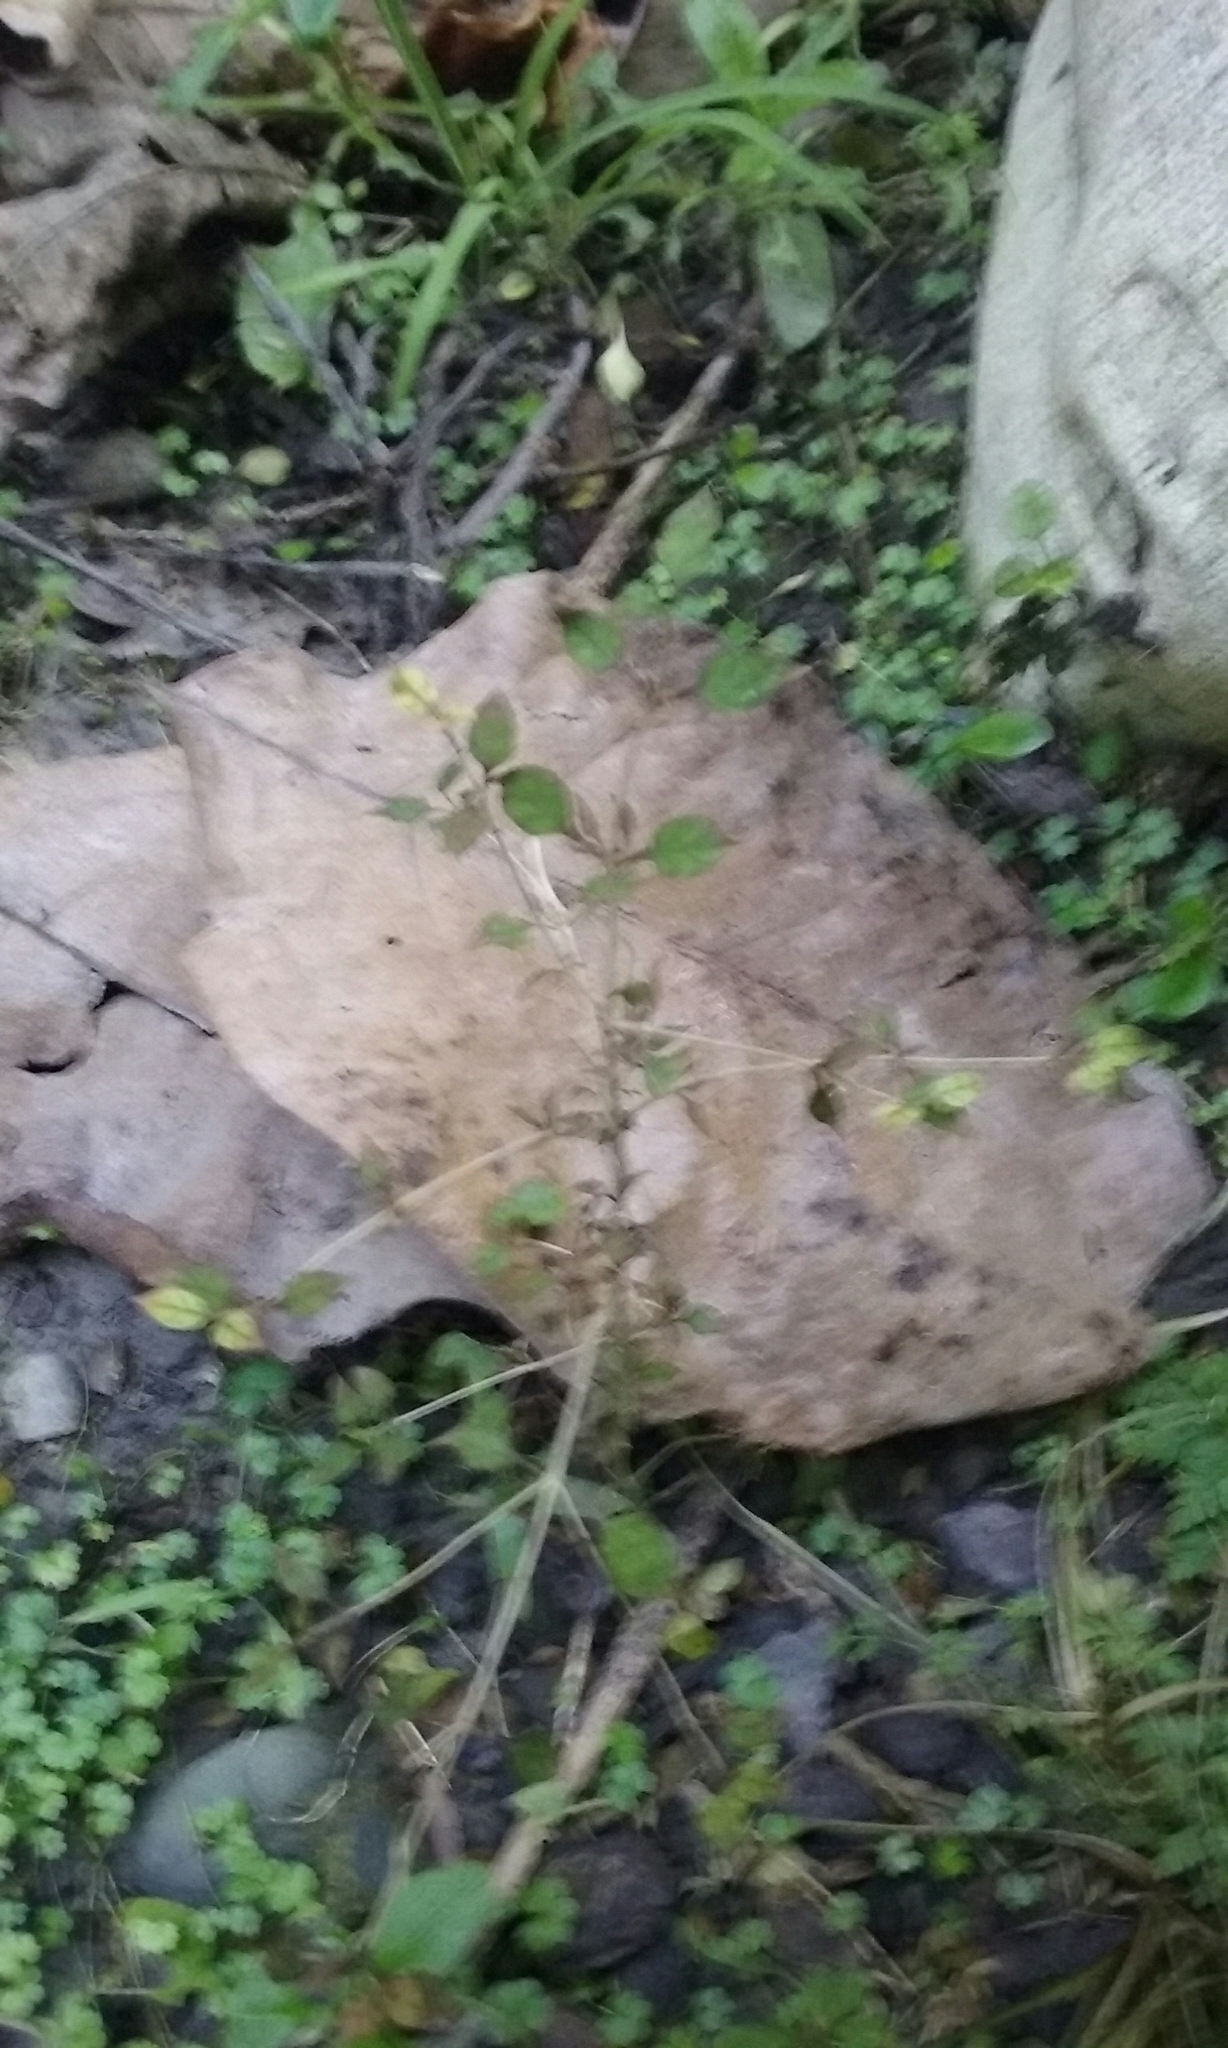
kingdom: Plantae
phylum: Tracheophyta
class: Magnoliopsida
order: Gentianales
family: Rubiaceae
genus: Coprosma
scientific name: Coprosma areolata
